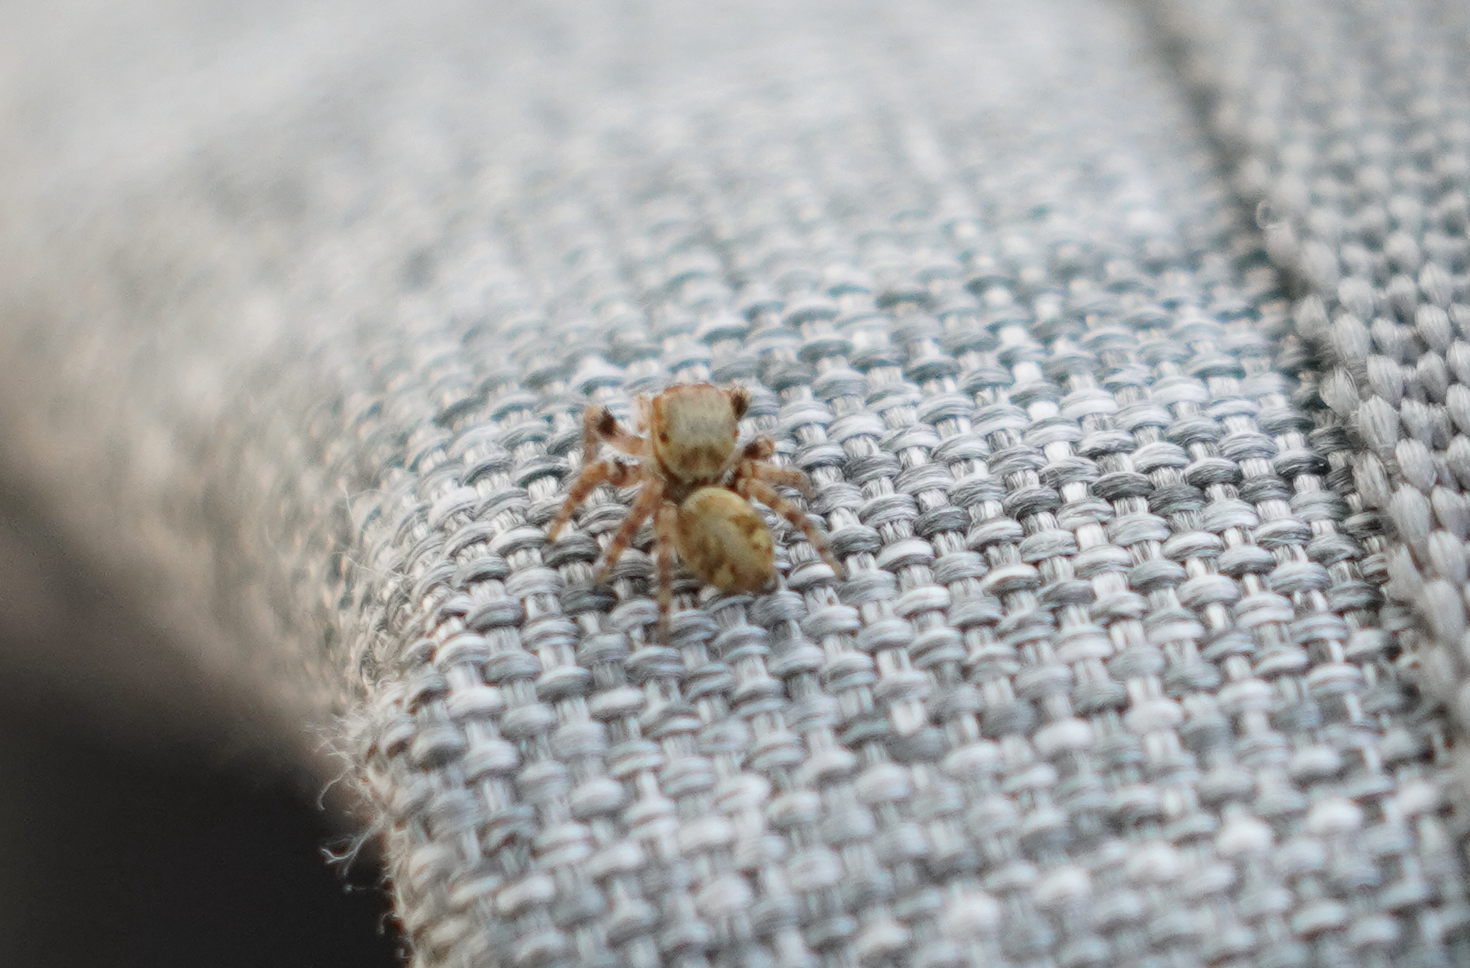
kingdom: Animalia
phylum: Arthropoda
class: Arachnida
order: Araneae
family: Salticidae
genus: Carrhotus
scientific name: Carrhotus viduus
